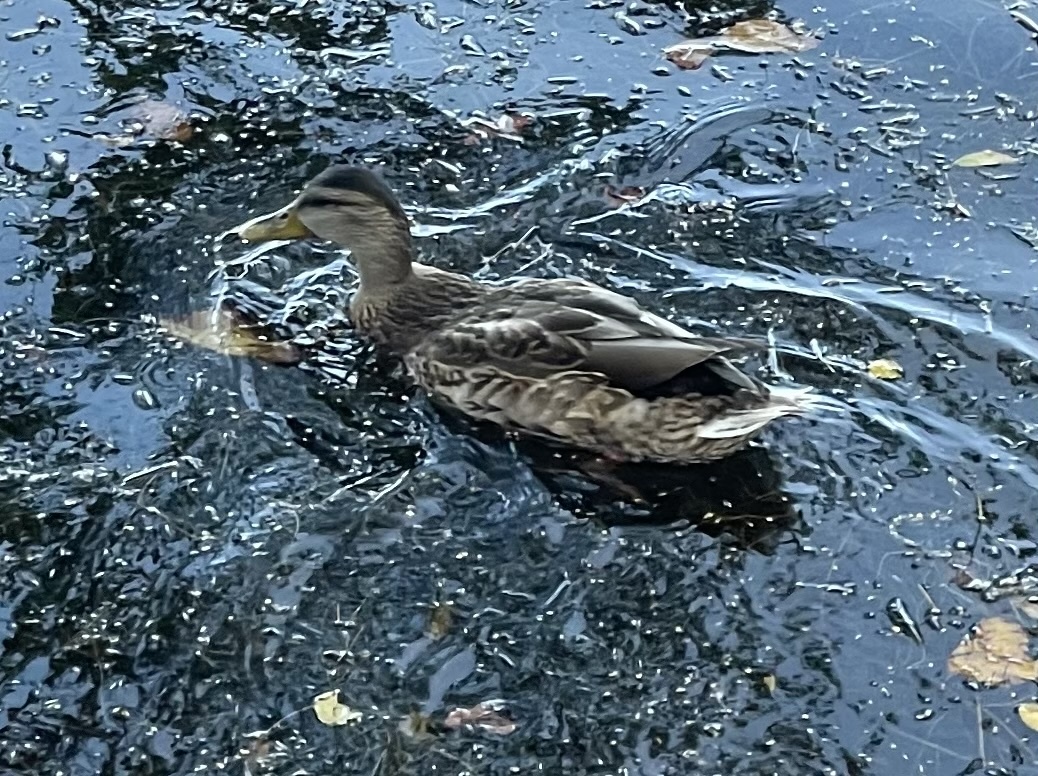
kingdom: Animalia
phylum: Chordata
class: Aves
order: Anseriformes
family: Anatidae
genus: Anas
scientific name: Anas platyrhynchos
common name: Mallard
